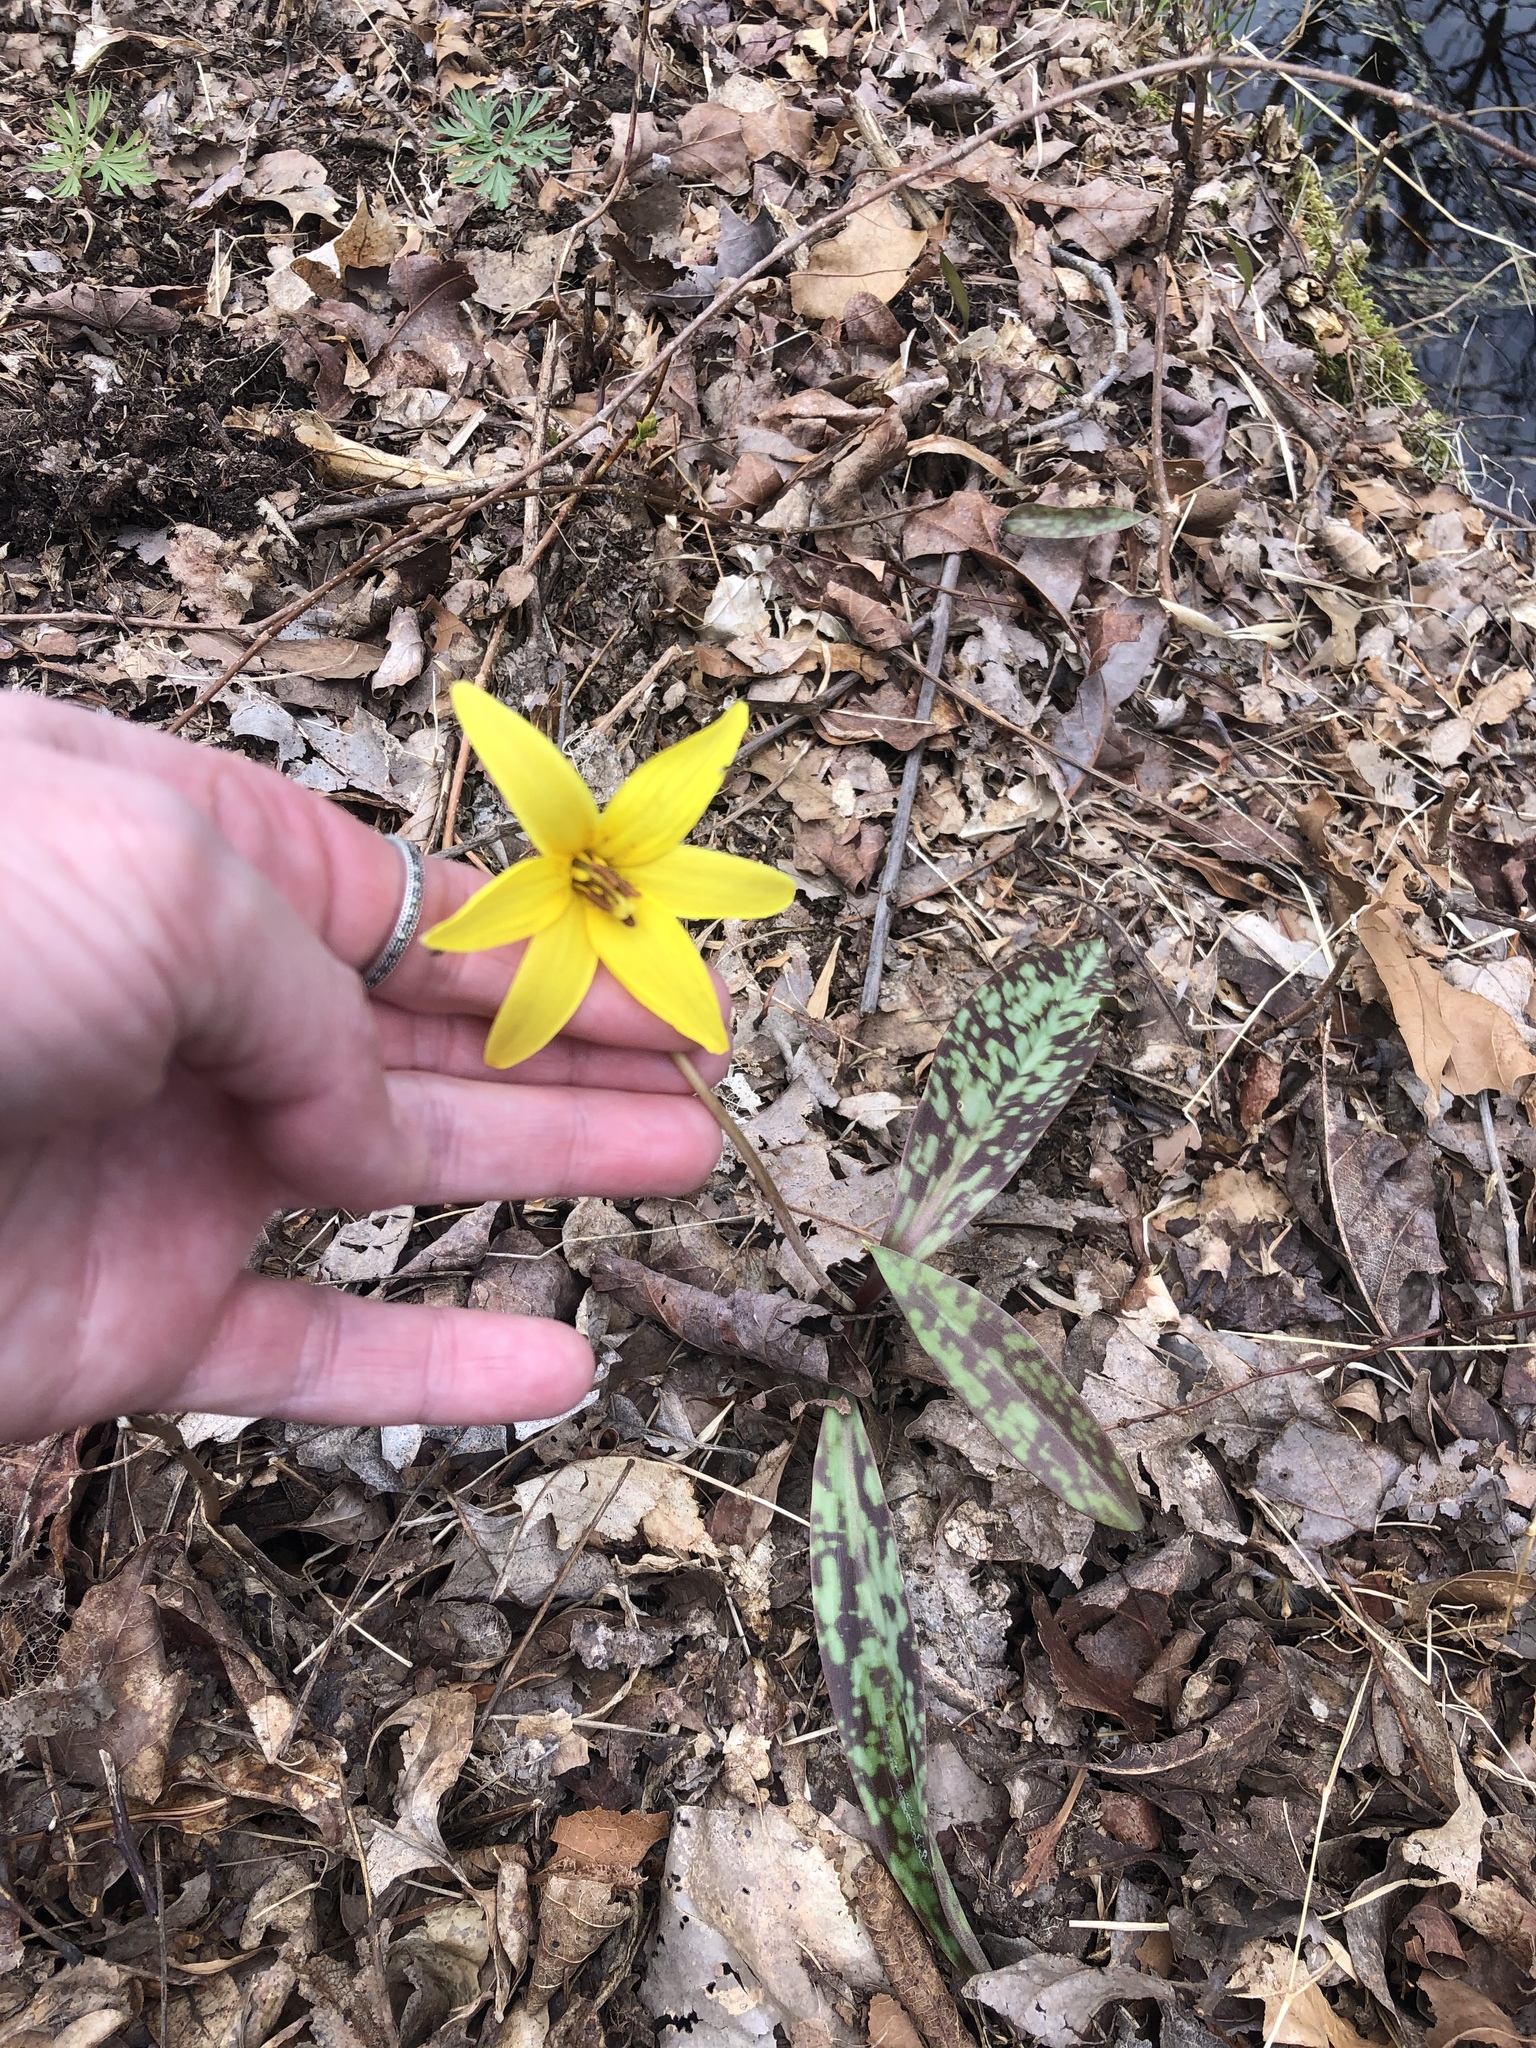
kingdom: Plantae
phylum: Tracheophyta
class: Liliopsida
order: Liliales
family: Liliaceae
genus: Erythronium
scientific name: Erythronium americanum
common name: Yellow adder's-tongue
